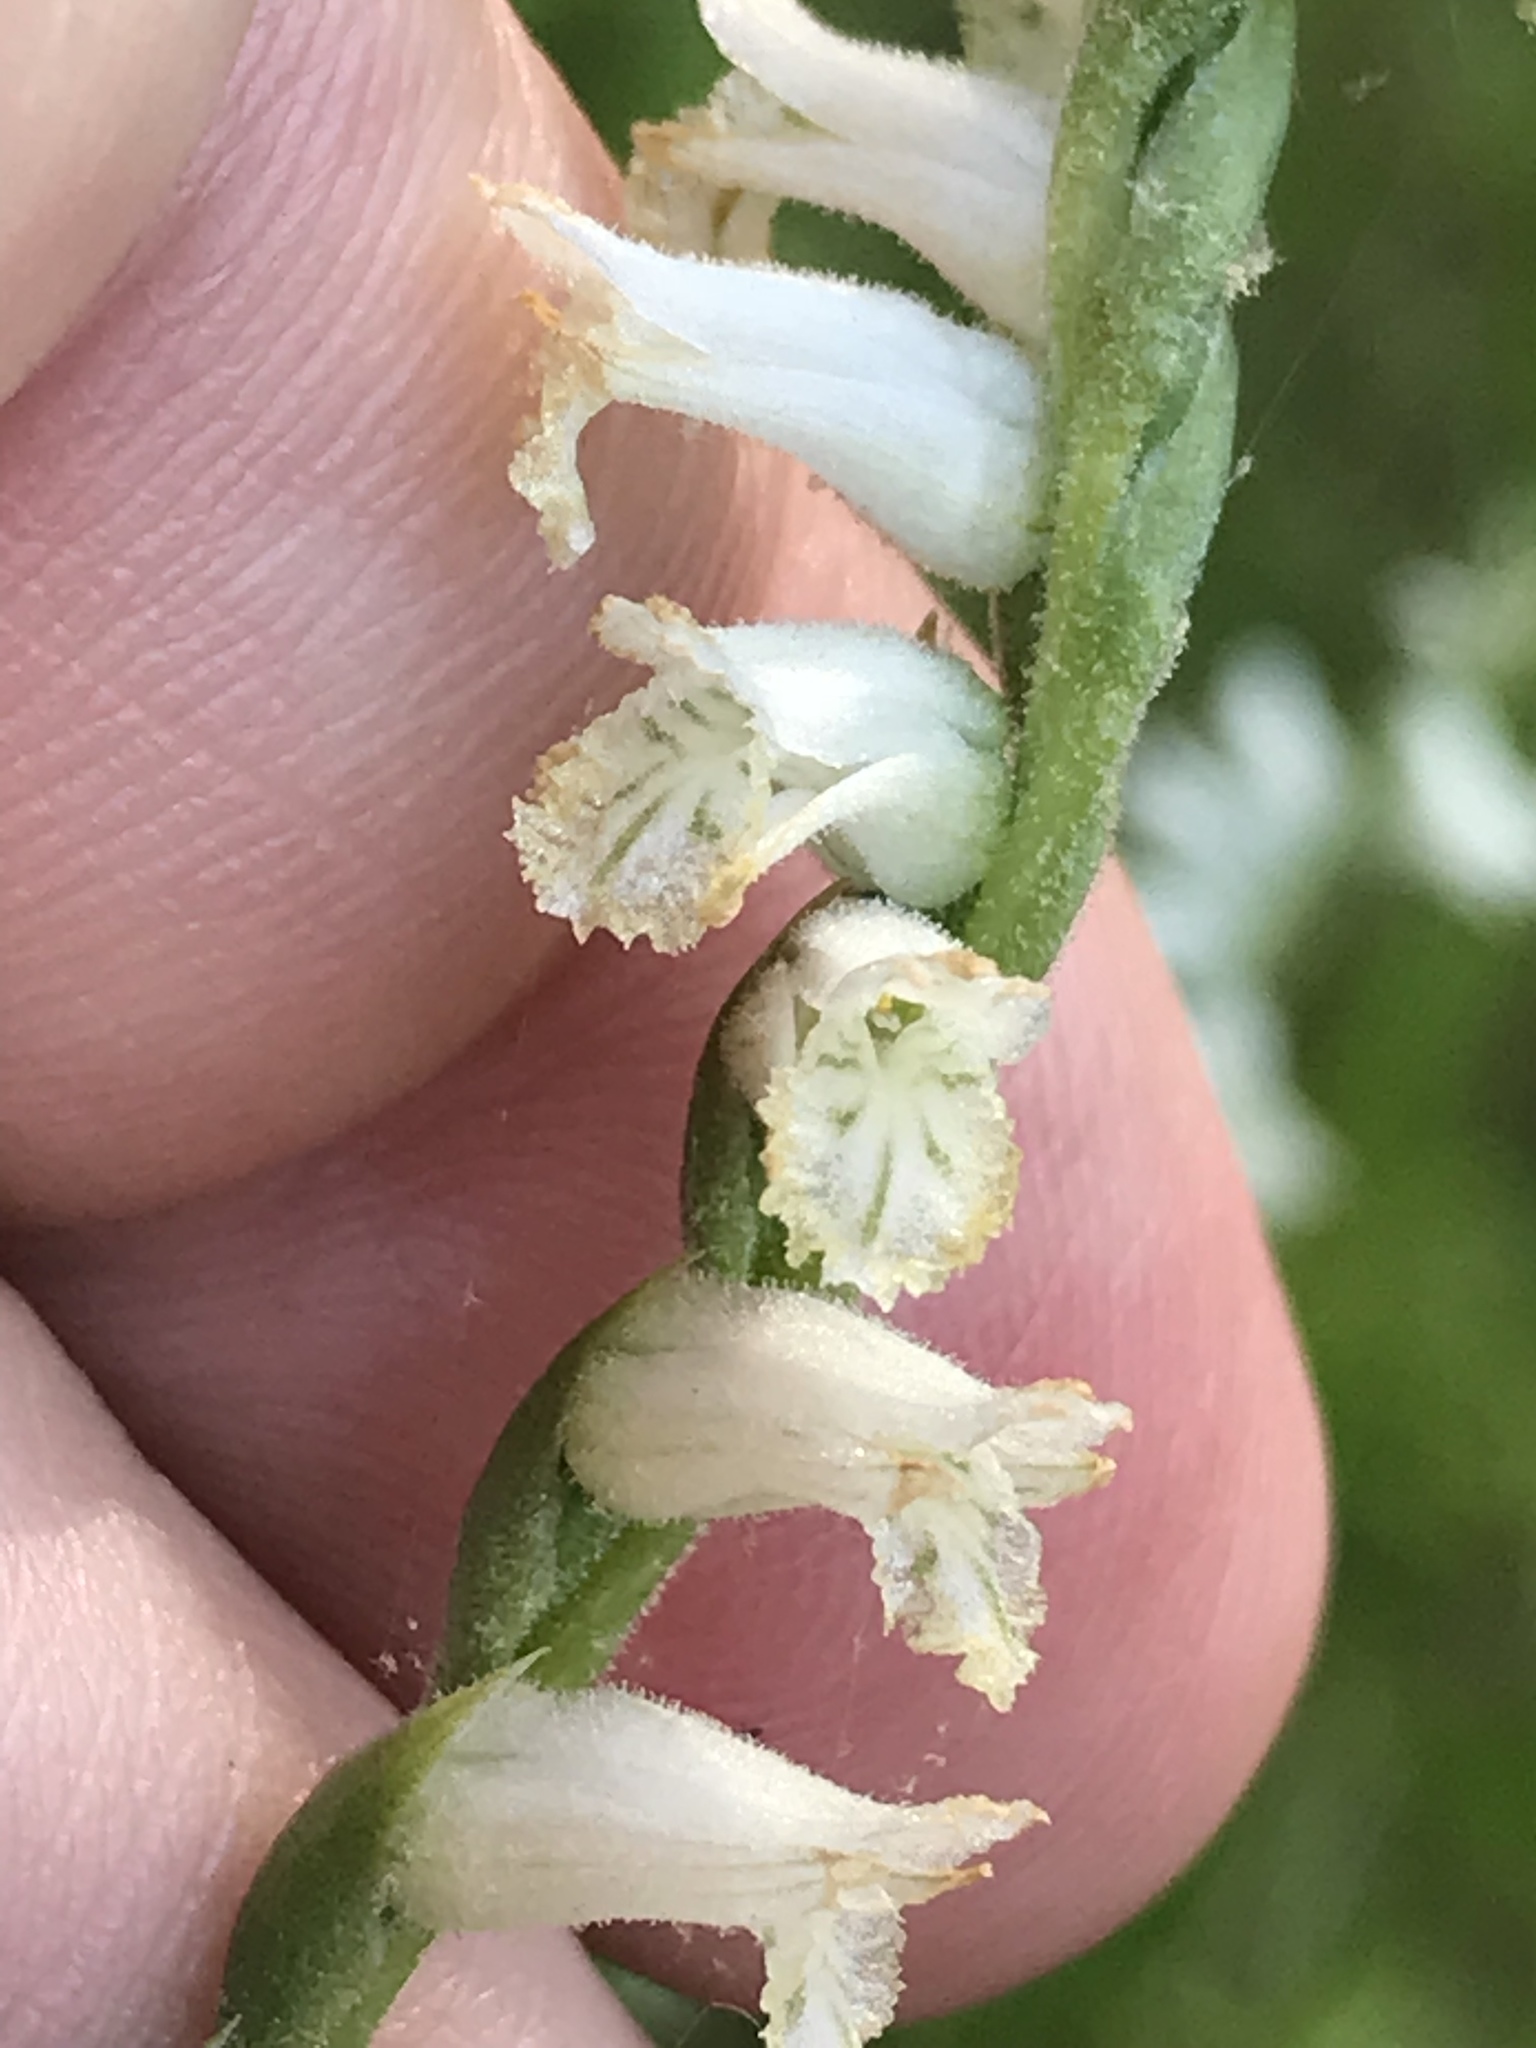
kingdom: Plantae
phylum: Tracheophyta
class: Liliopsida
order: Asparagales
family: Orchidaceae
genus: Spiranthes
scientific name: Spiranthes praecox
